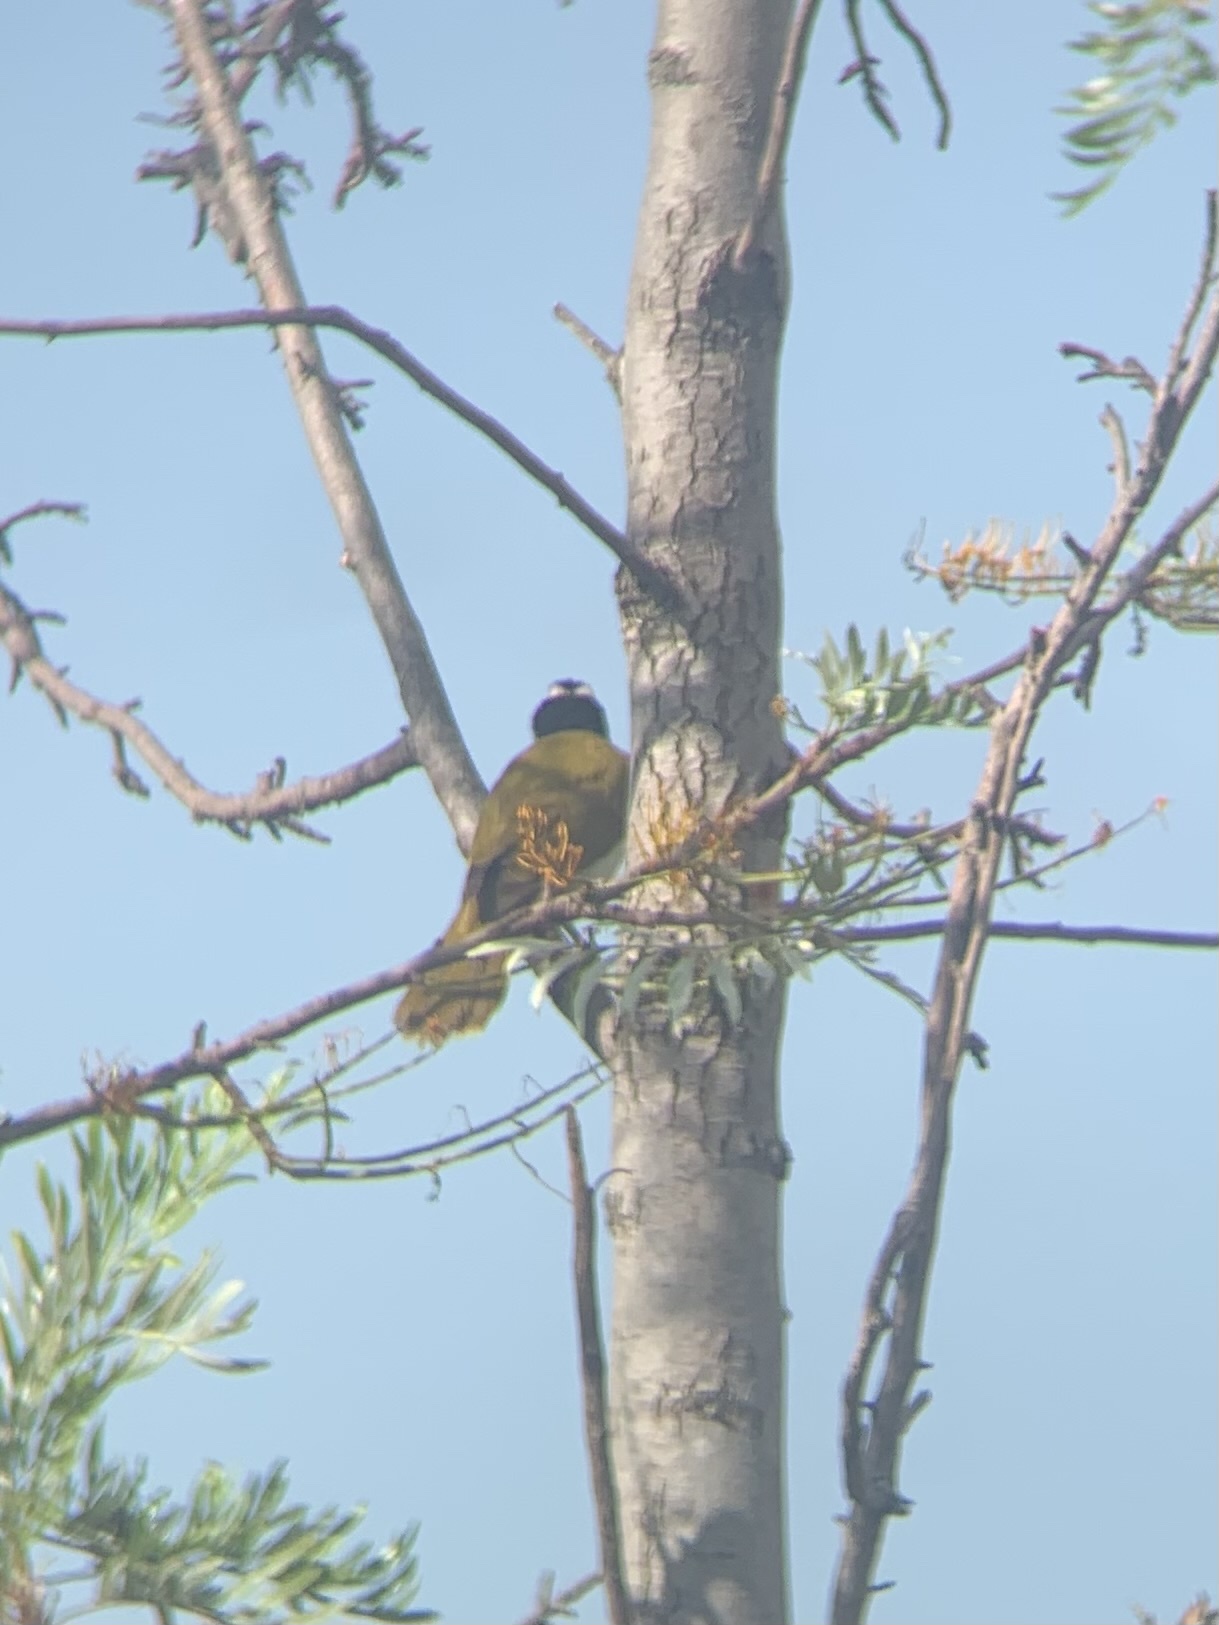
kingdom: Animalia
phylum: Chordata
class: Aves
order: Passeriformes
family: Meliphagidae
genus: Entomyzon
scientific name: Entomyzon cyanotis
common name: Blue-faced honeyeater
